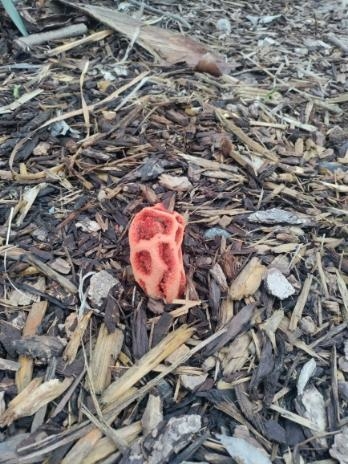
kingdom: Fungi
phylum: Basidiomycota
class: Agaricomycetes
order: Phallales
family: Phallaceae
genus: Clathrus
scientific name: Clathrus ruber
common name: Red cage
